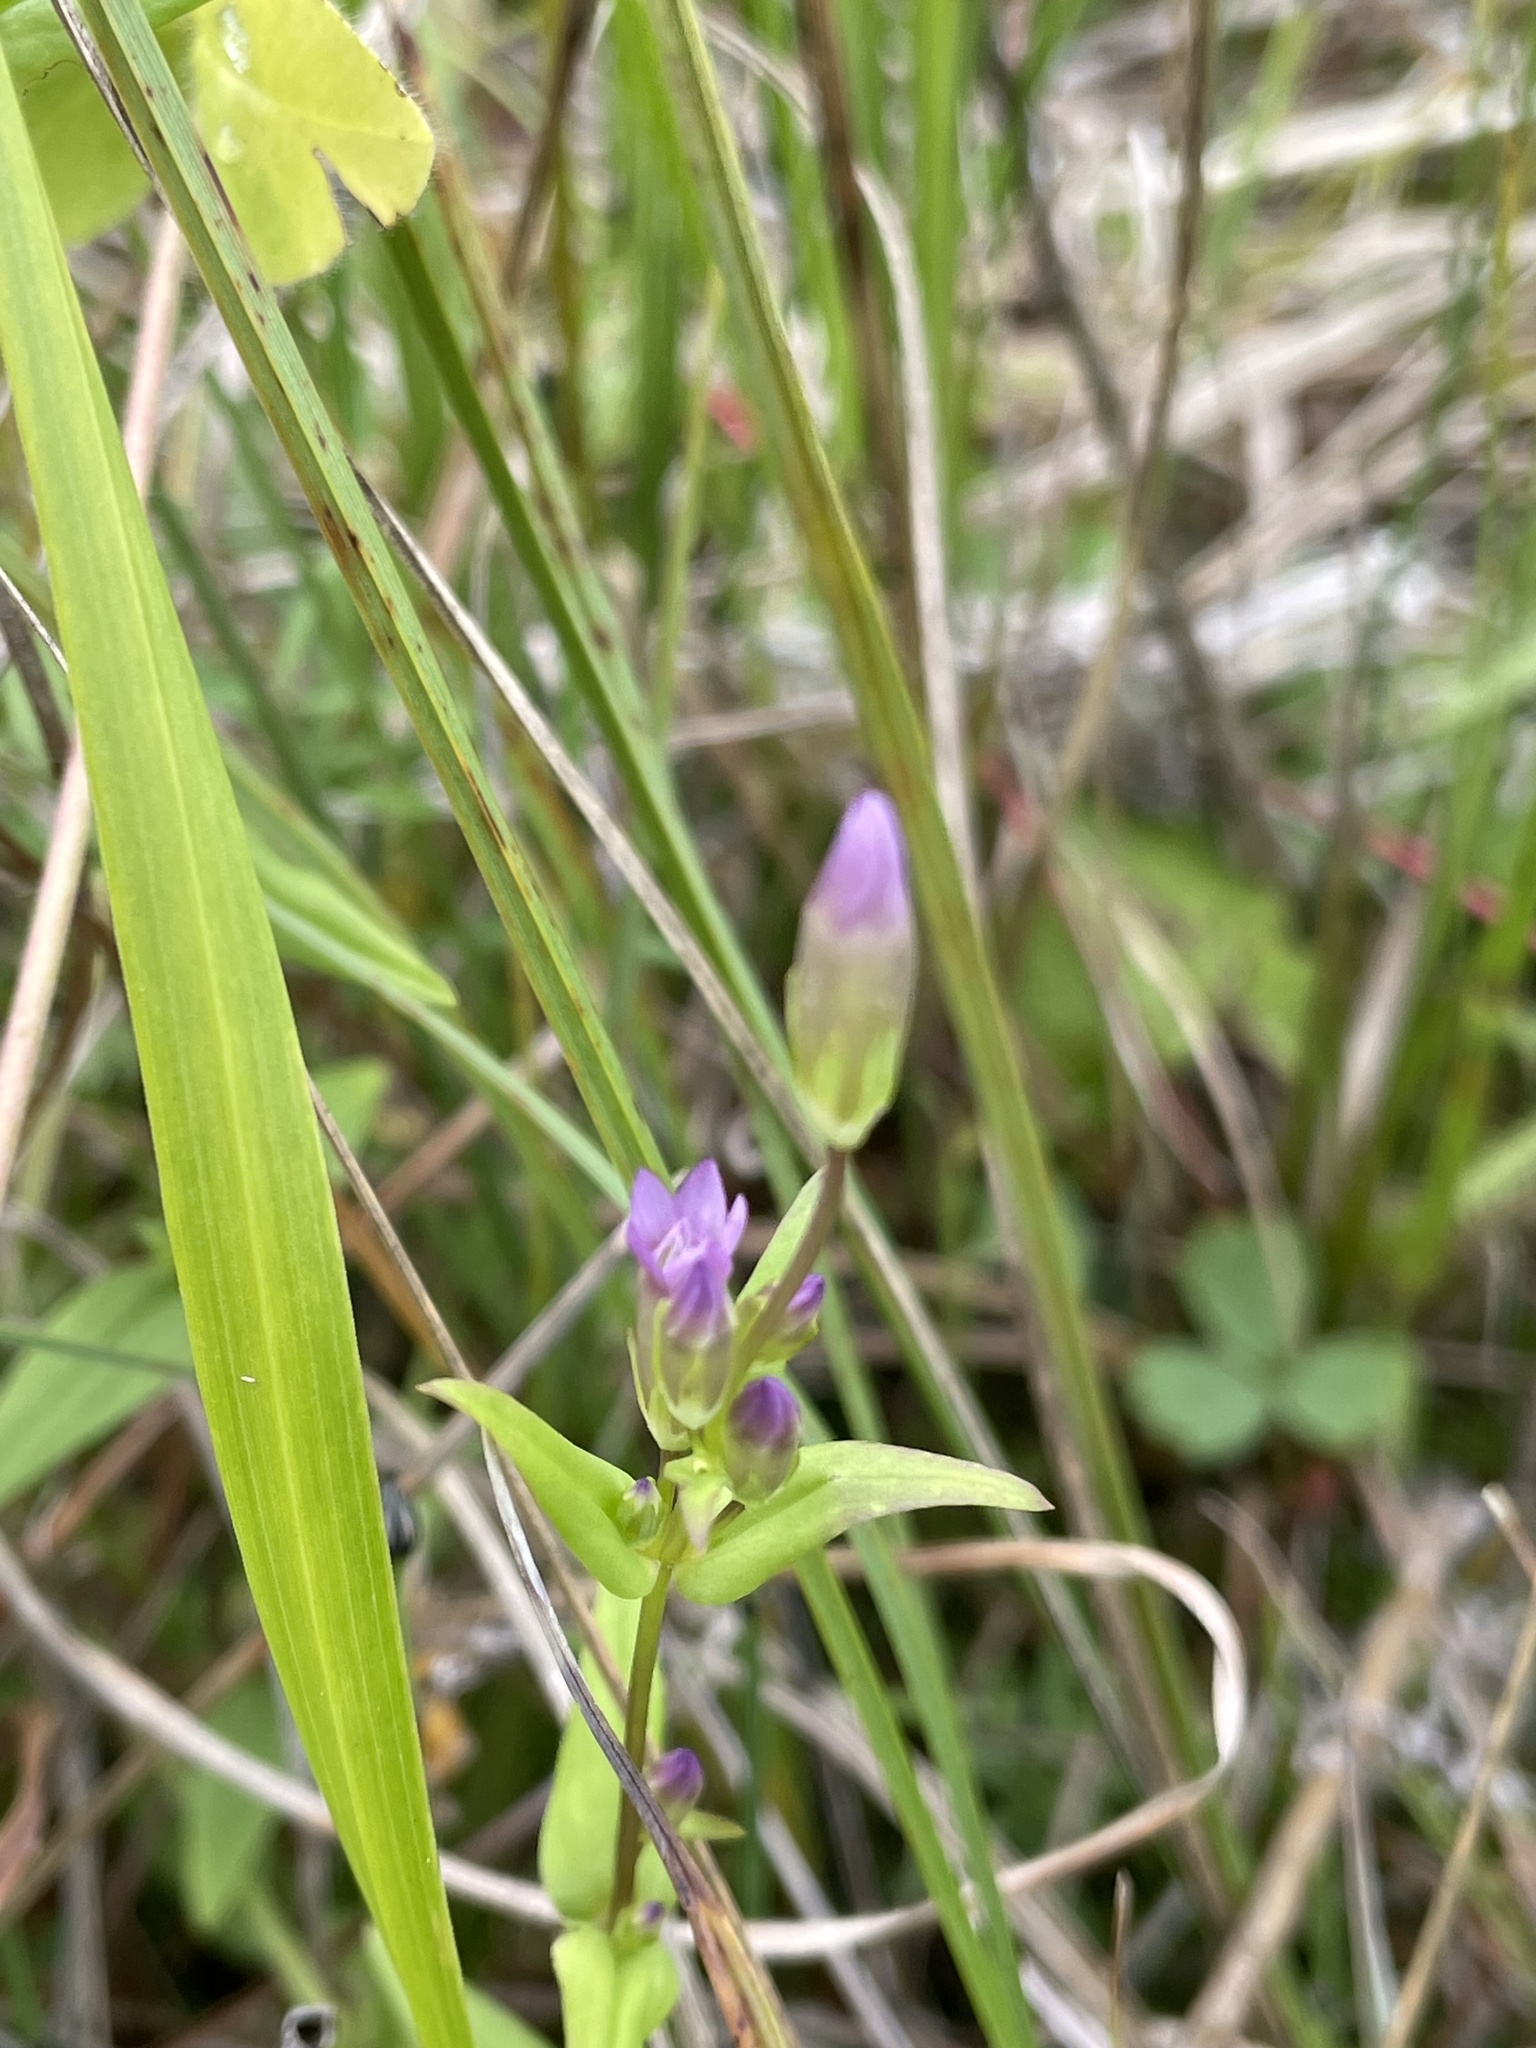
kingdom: Plantae
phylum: Tracheophyta
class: Magnoliopsida
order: Gentianales
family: Gentianaceae
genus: Gentianella
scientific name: Gentianella amarella
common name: Autumn gentian
